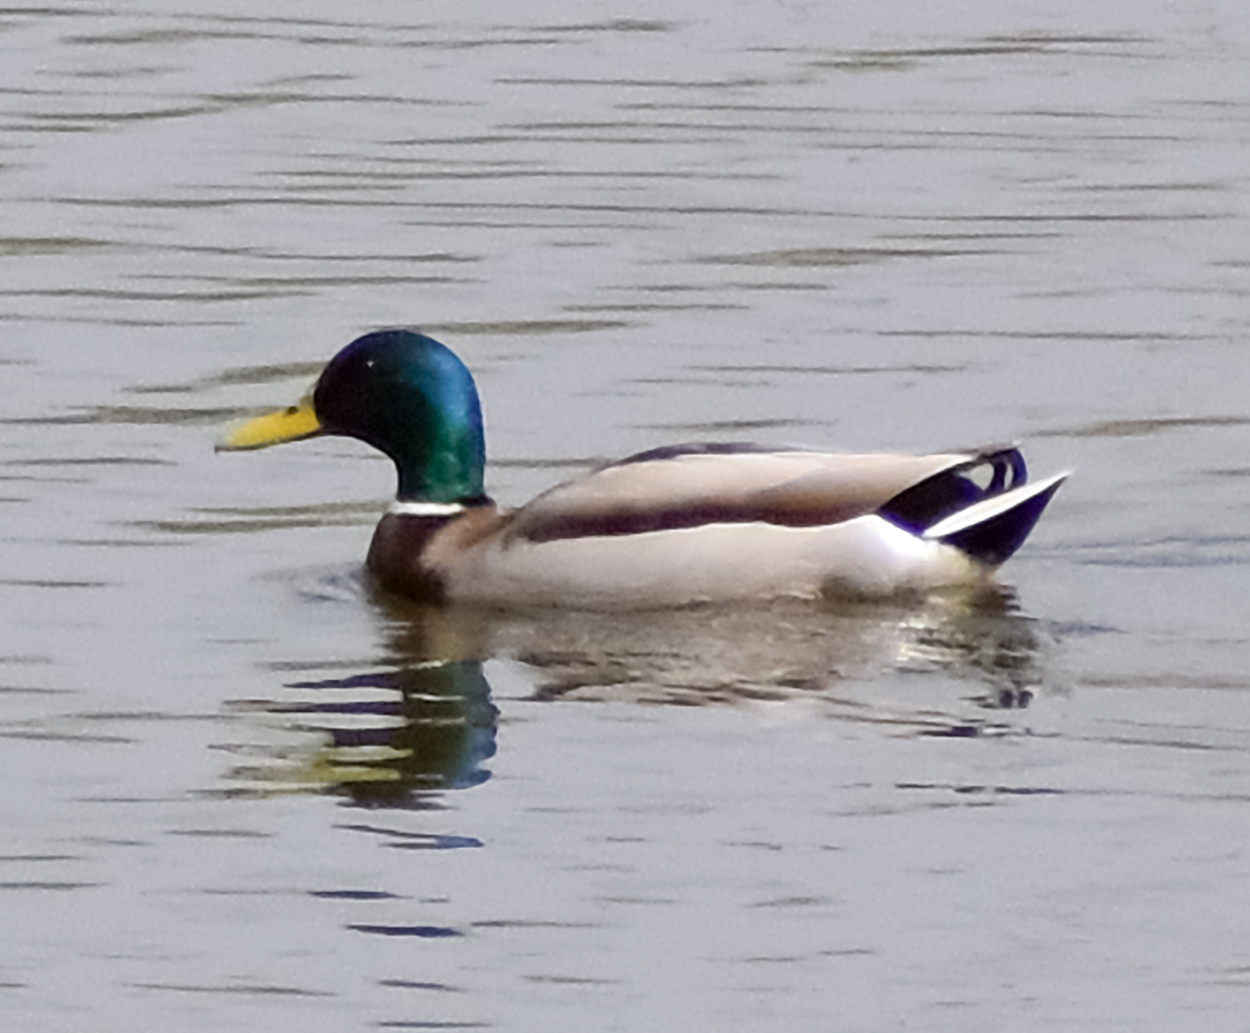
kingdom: Animalia
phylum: Chordata
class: Aves
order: Anseriformes
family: Anatidae
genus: Anas
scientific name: Anas platyrhynchos
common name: Mallard
